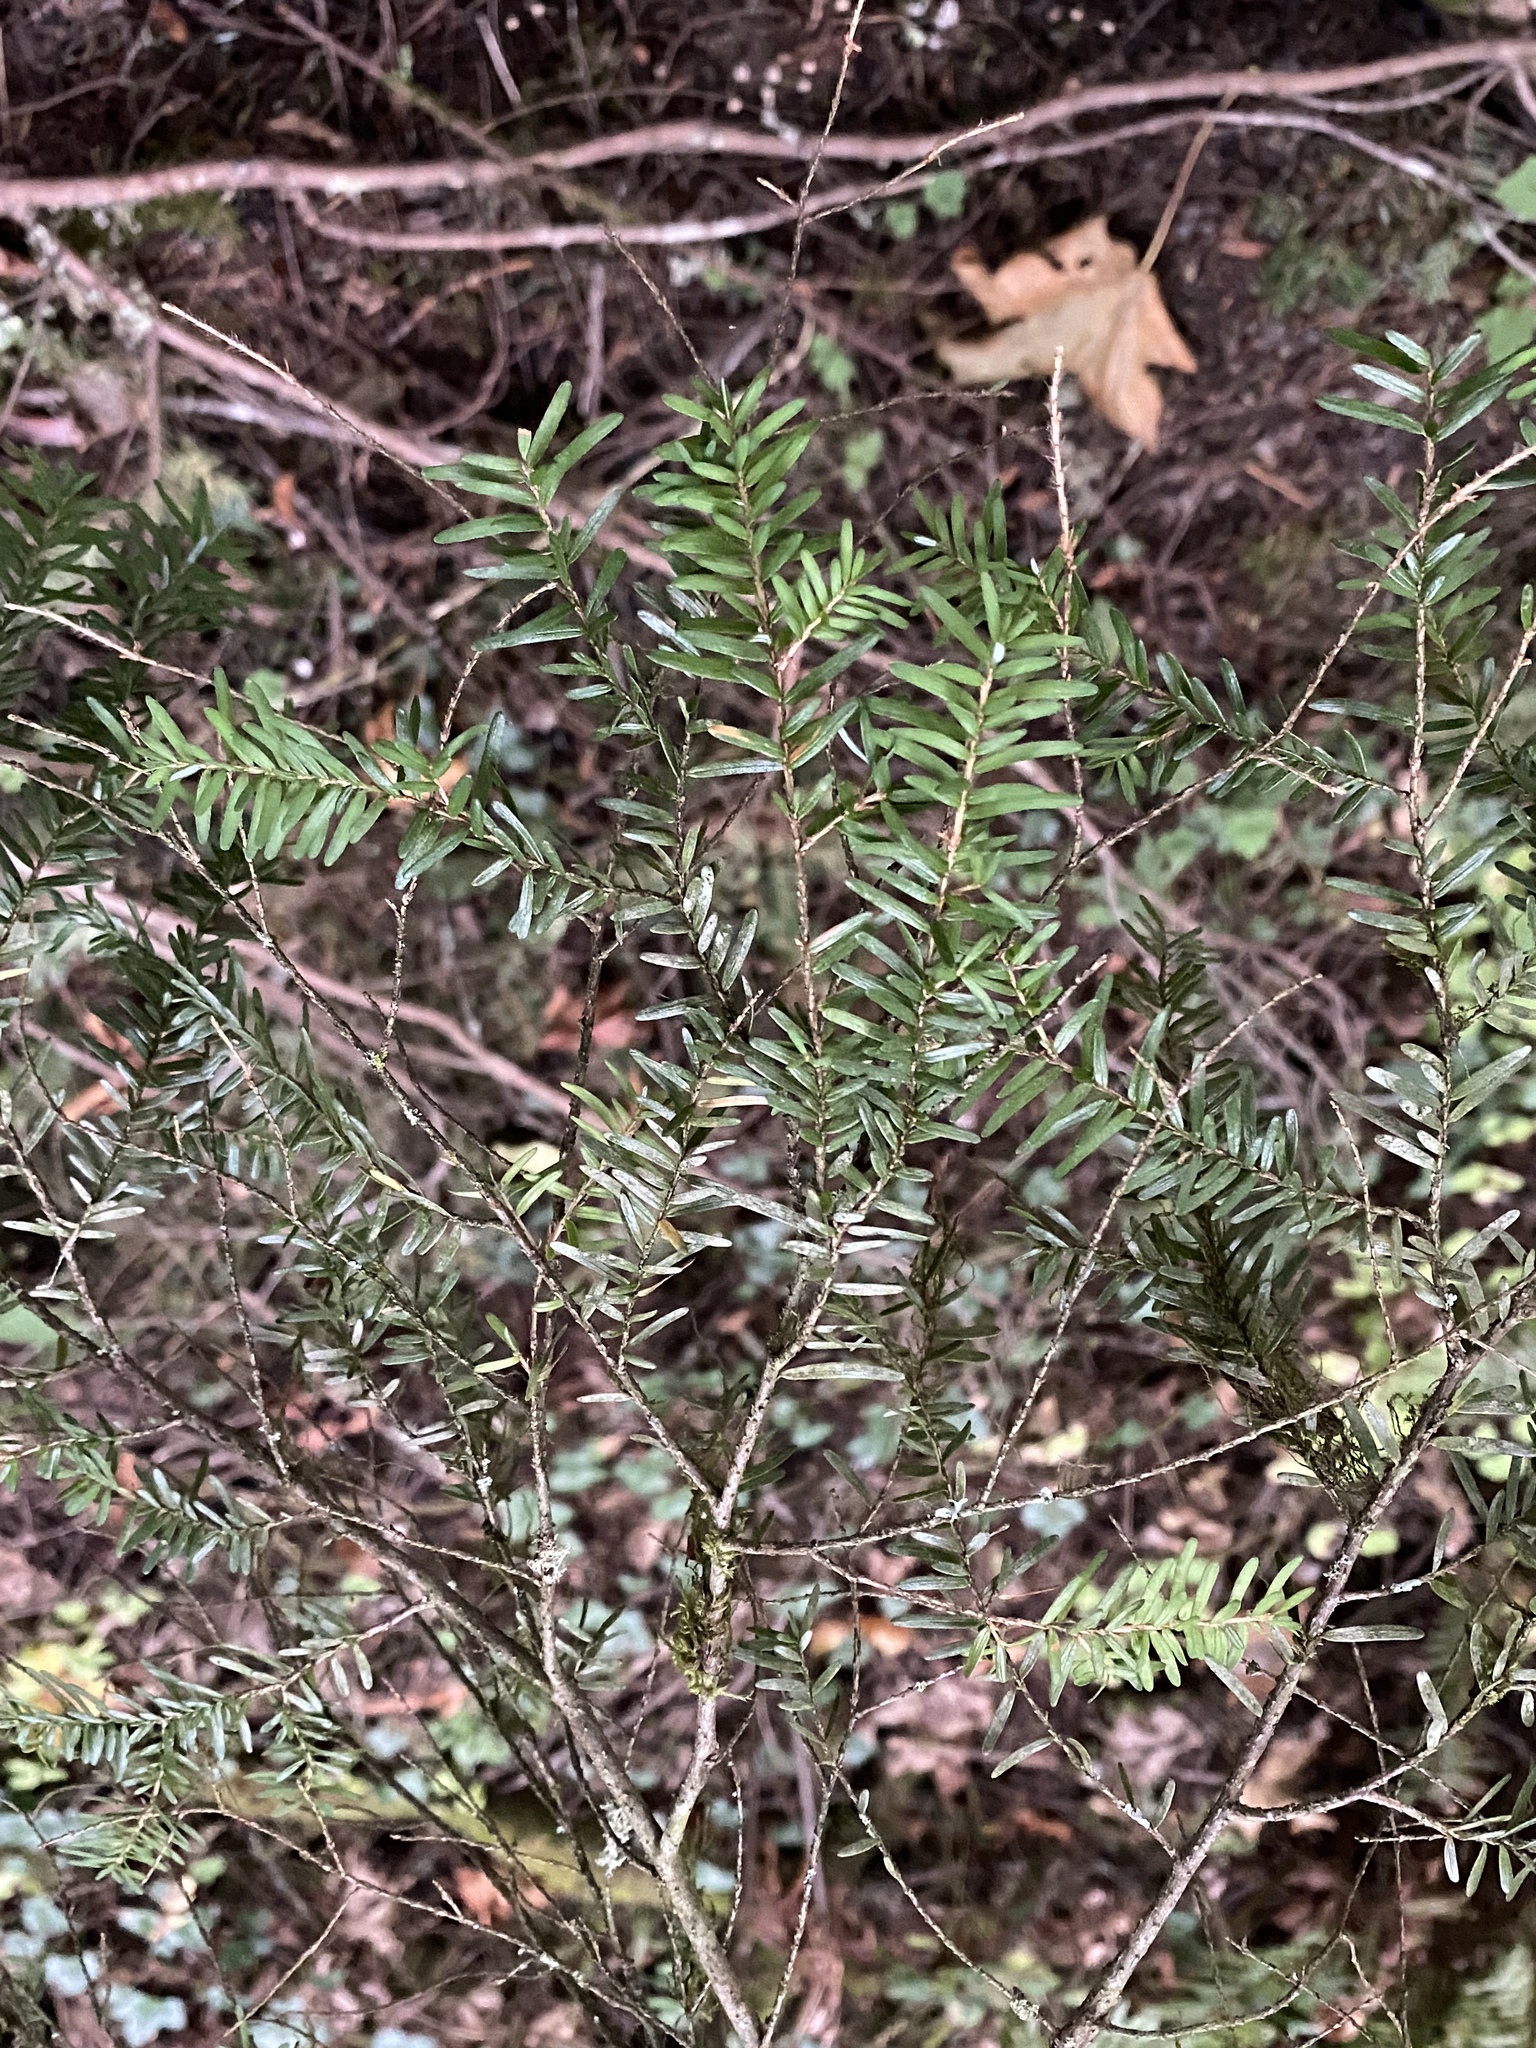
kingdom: Plantae
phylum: Tracheophyta
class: Pinopsida
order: Pinales
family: Pinaceae
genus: Tsuga
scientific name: Tsuga heterophylla
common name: Western hemlock
